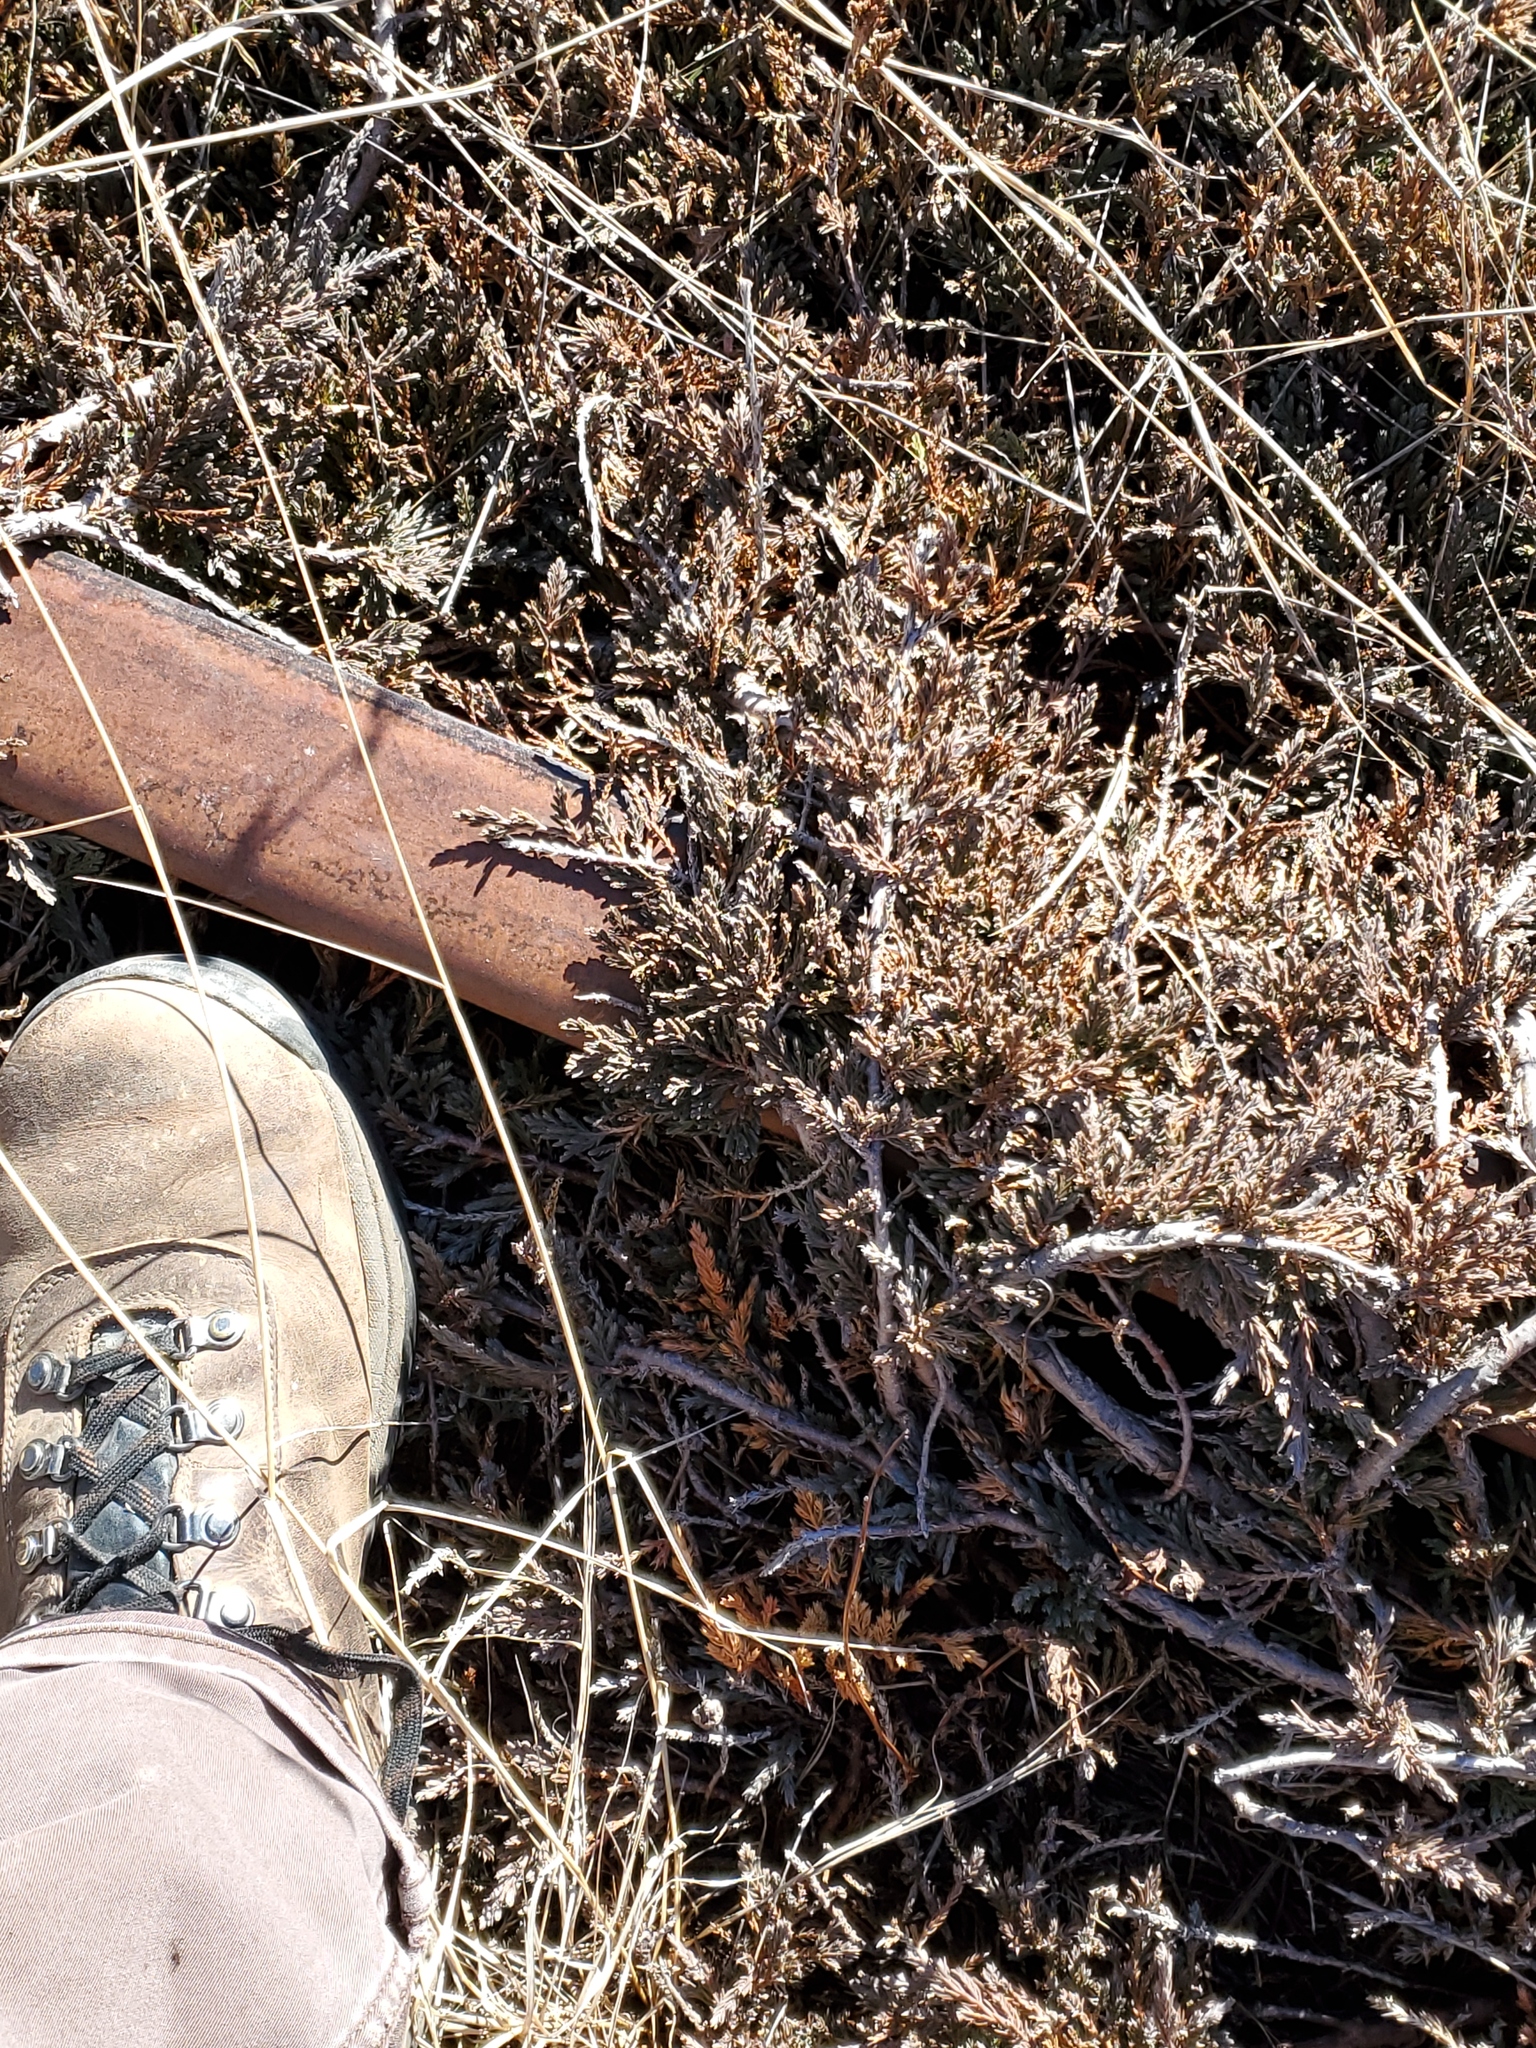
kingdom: Plantae
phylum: Tracheophyta
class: Pinopsida
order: Pinales
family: Cupressaceae
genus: Juniperus
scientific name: Juniperus horizontalis
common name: Creeping juniper
